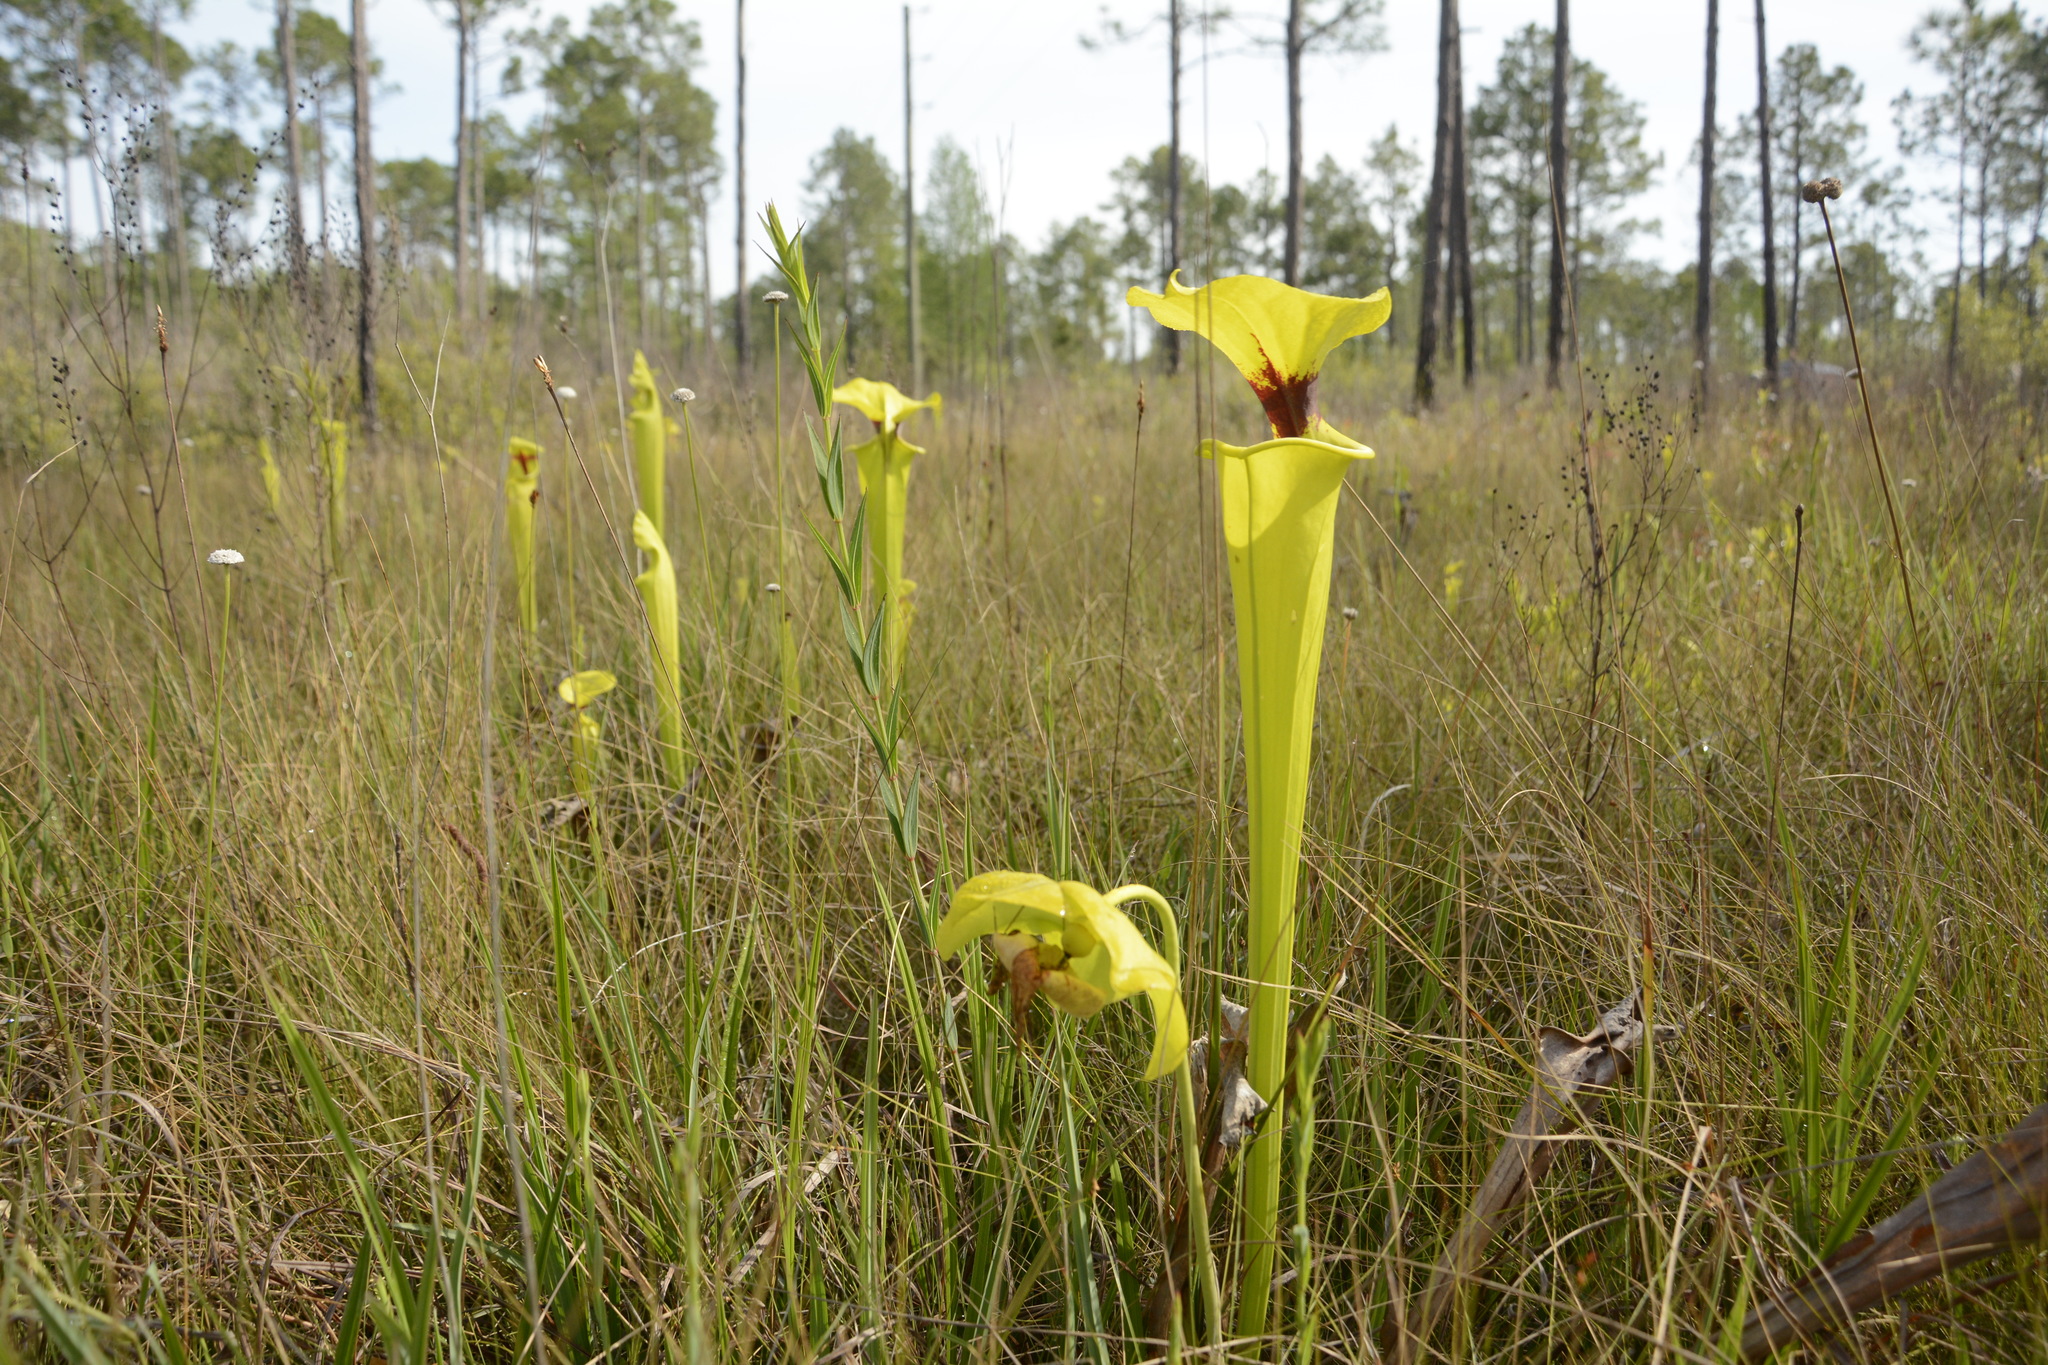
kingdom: Plantae
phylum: Tracheophyta
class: Magnoliopsida
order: Ericales
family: Sarraceniaceae
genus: Sarracenia
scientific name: Sarracenia flava
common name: Trumpets
